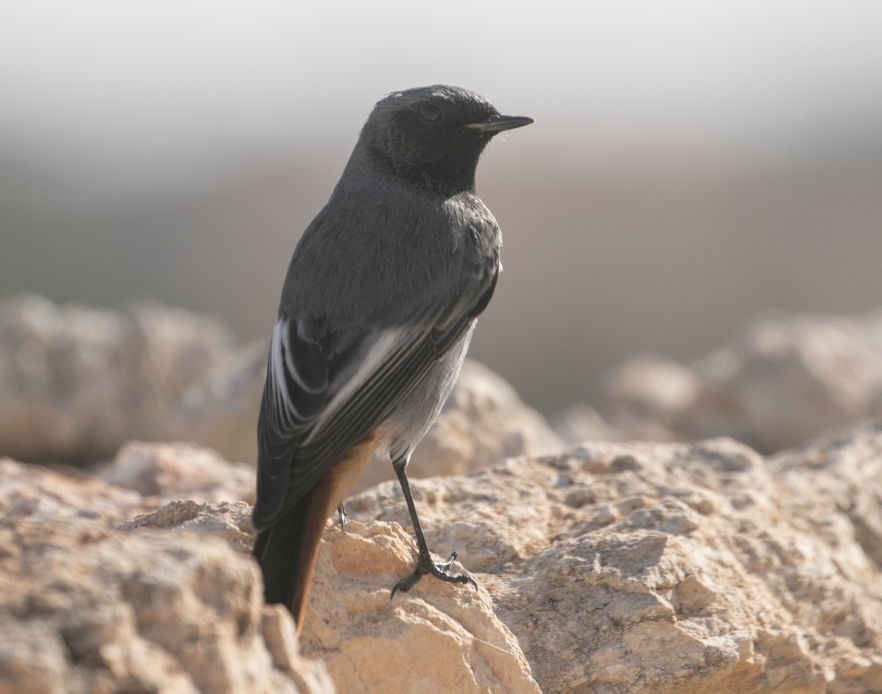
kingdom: Animalia
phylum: Chordata
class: Aves
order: Passeriformes
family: Muscicapidae
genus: Phoenicurus
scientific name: Phoenicurus ochruros
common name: Black redstart
